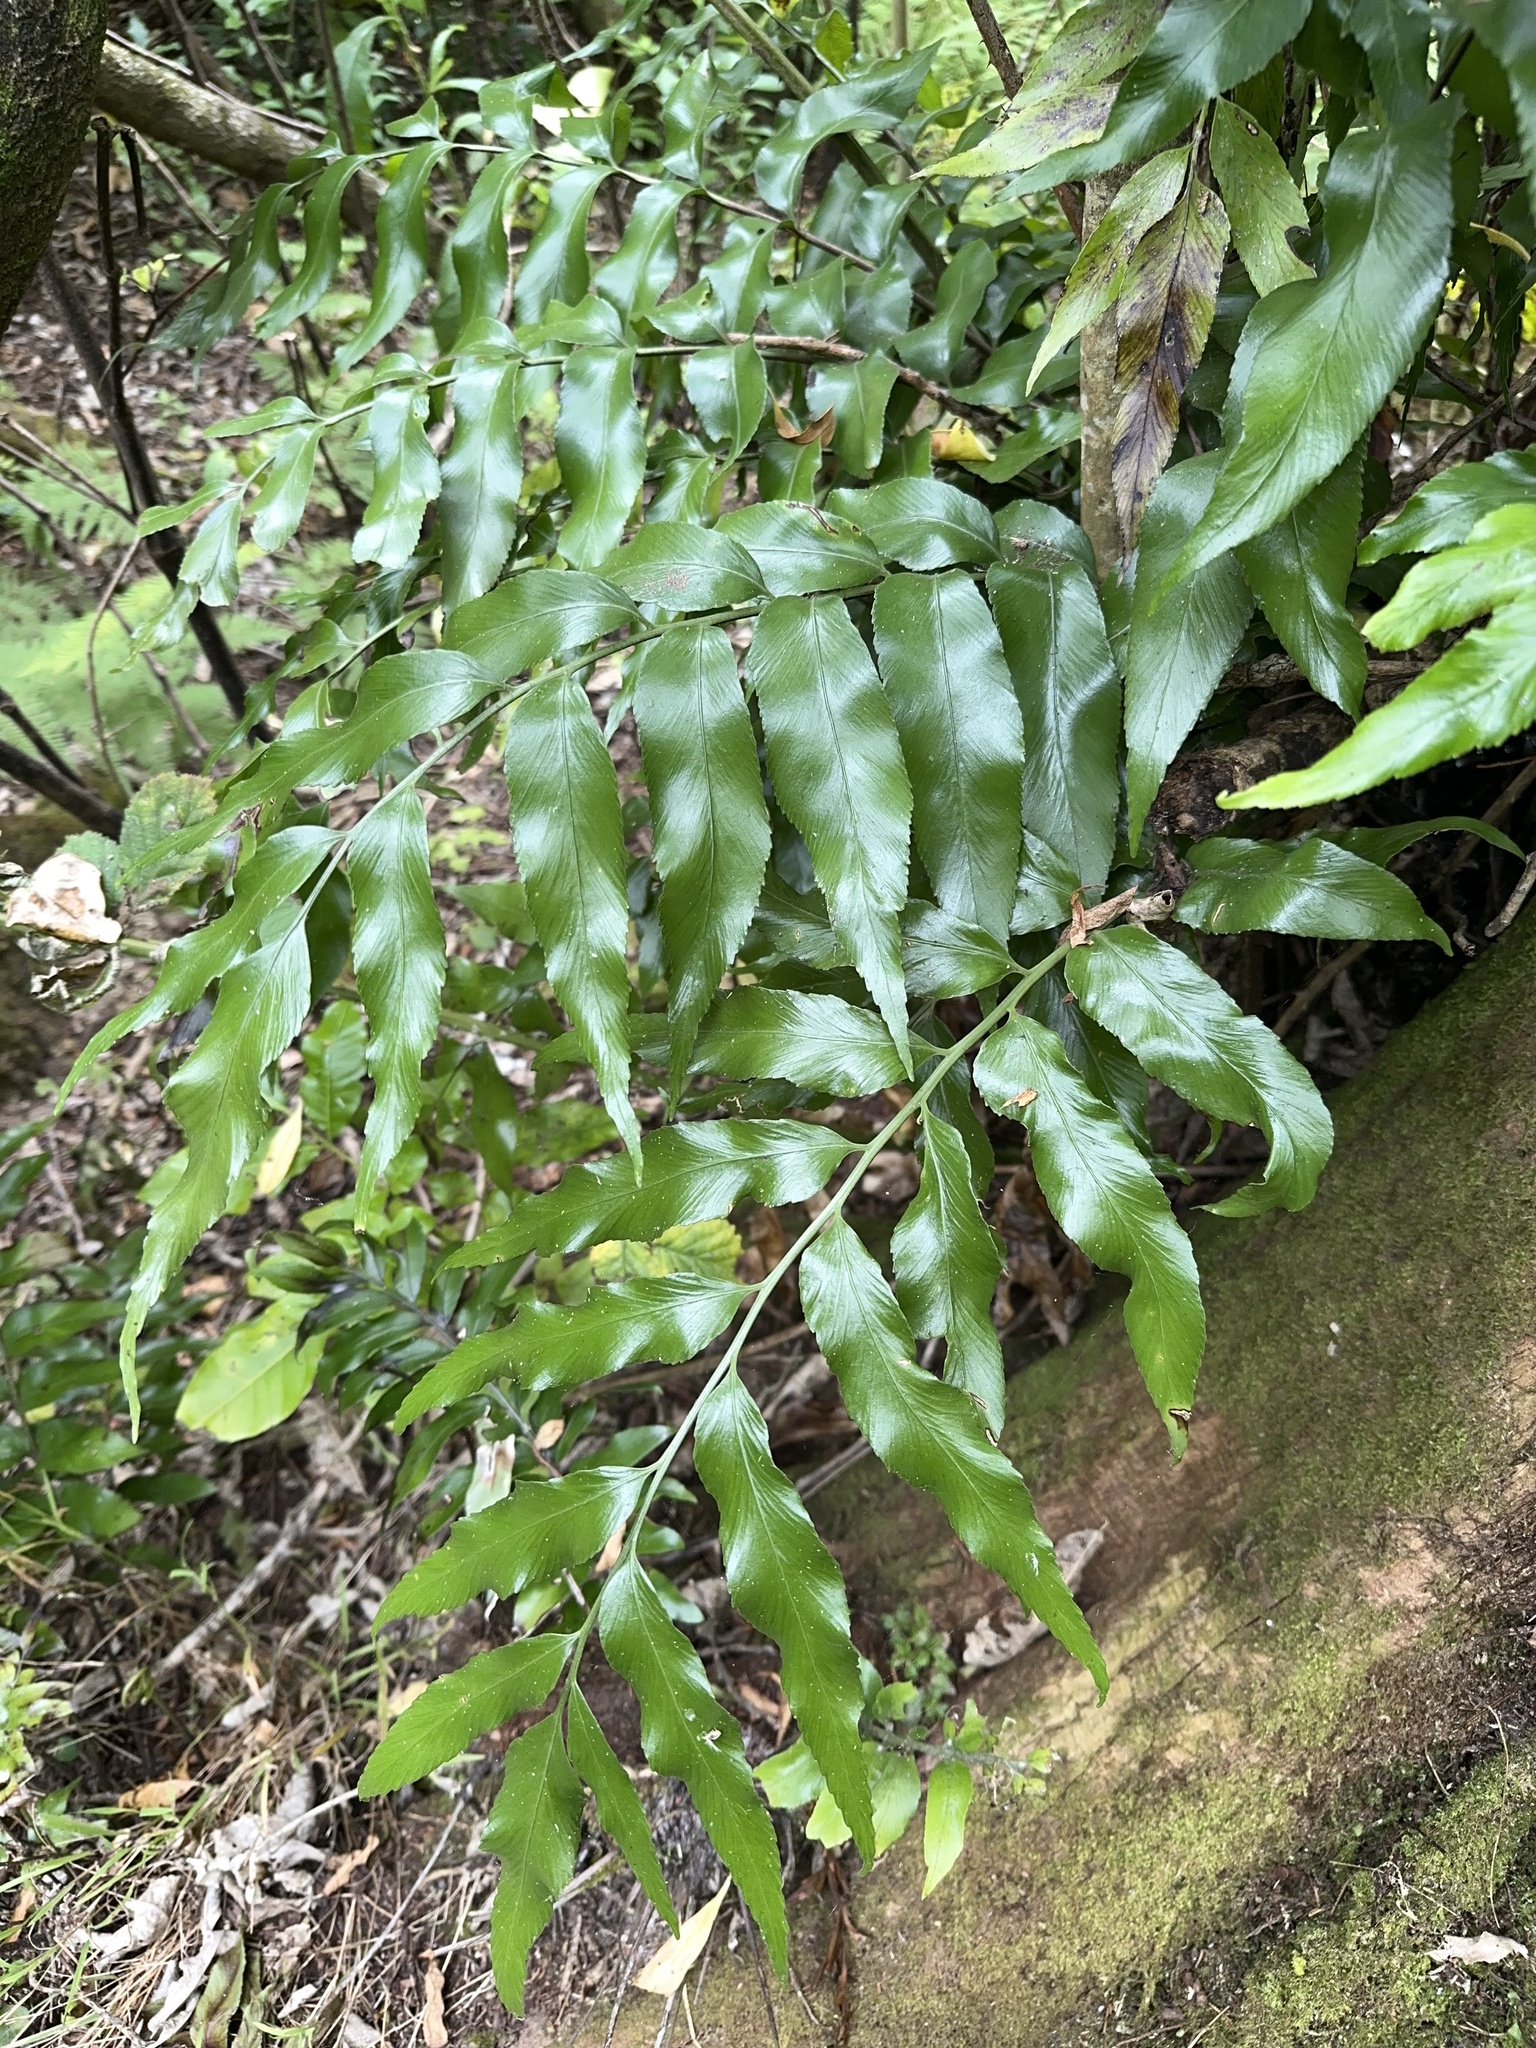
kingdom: Plantae
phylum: Tracheophyta
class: Polypodiopsida
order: Polypodiales
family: Aspleniaceae
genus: Asplenium
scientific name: Asplenium oblongifolium
